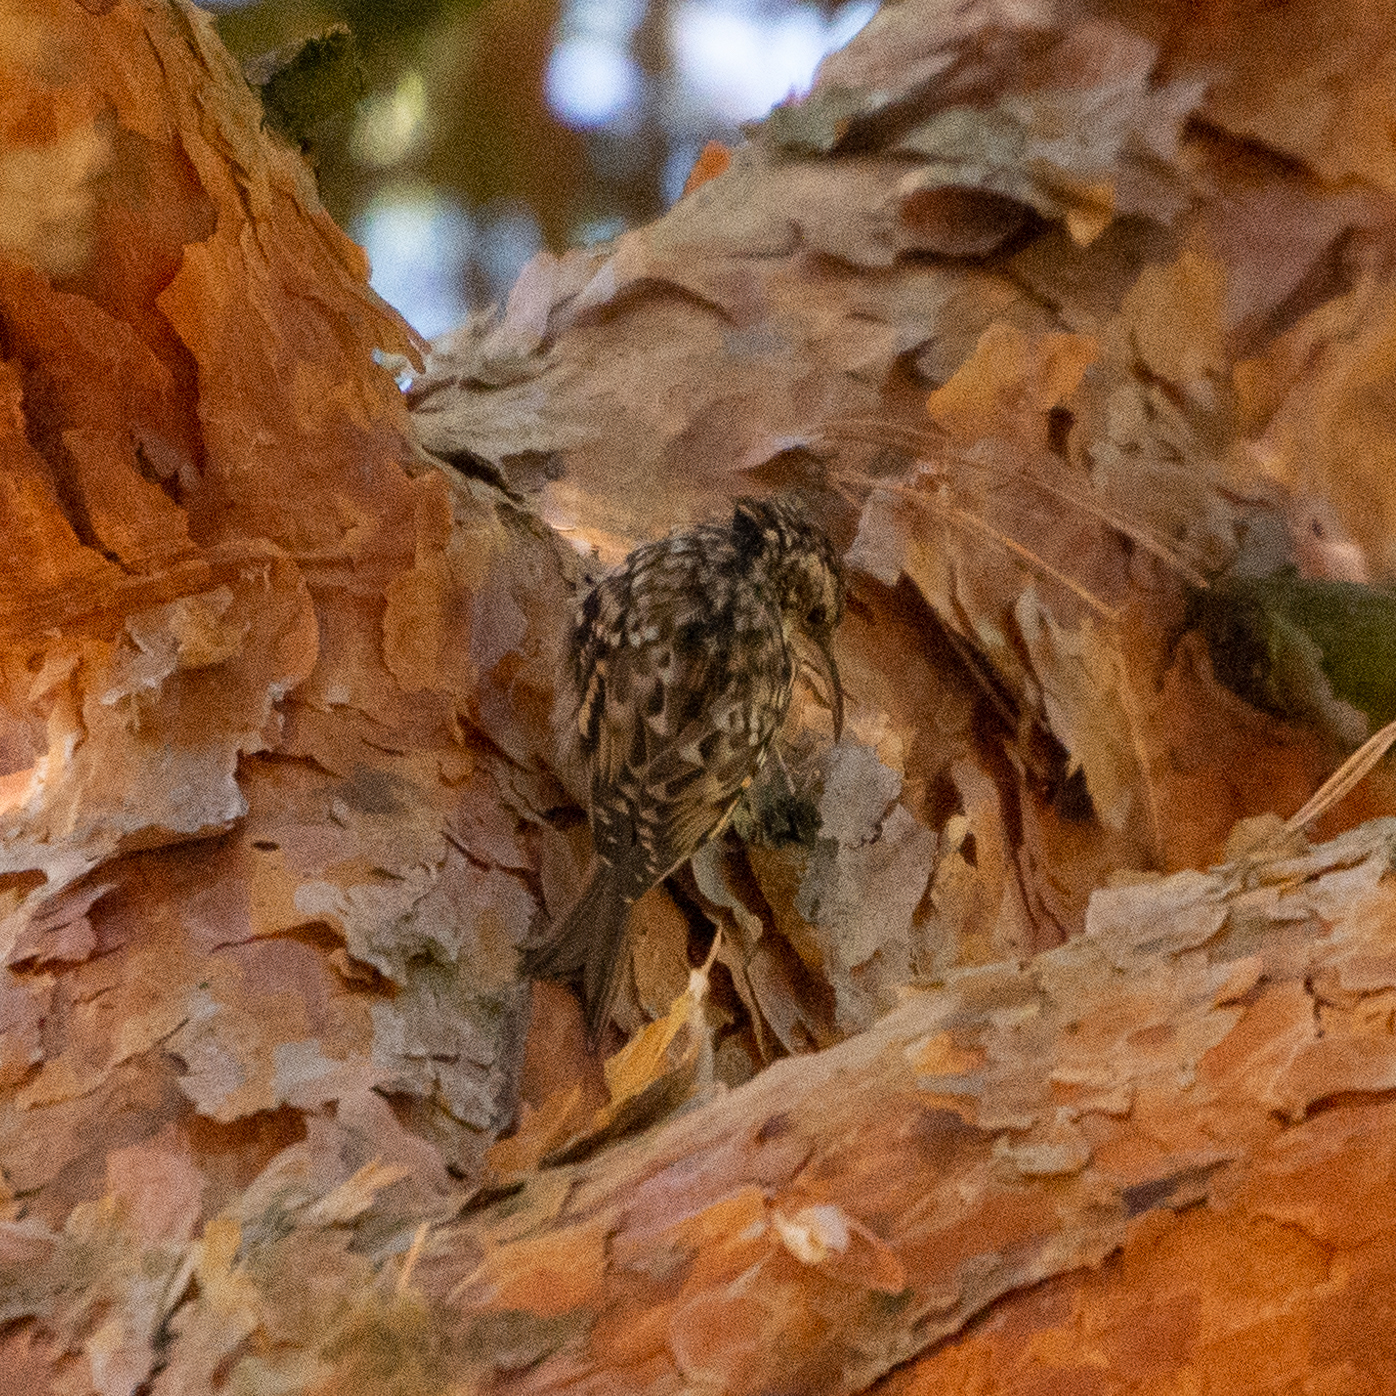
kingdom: Animalia
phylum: Chordata
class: Aves
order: Passeriformes
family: Certhiidae
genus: Certhia
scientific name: Certhia brachydactyla
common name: Short-toed treecreeper
